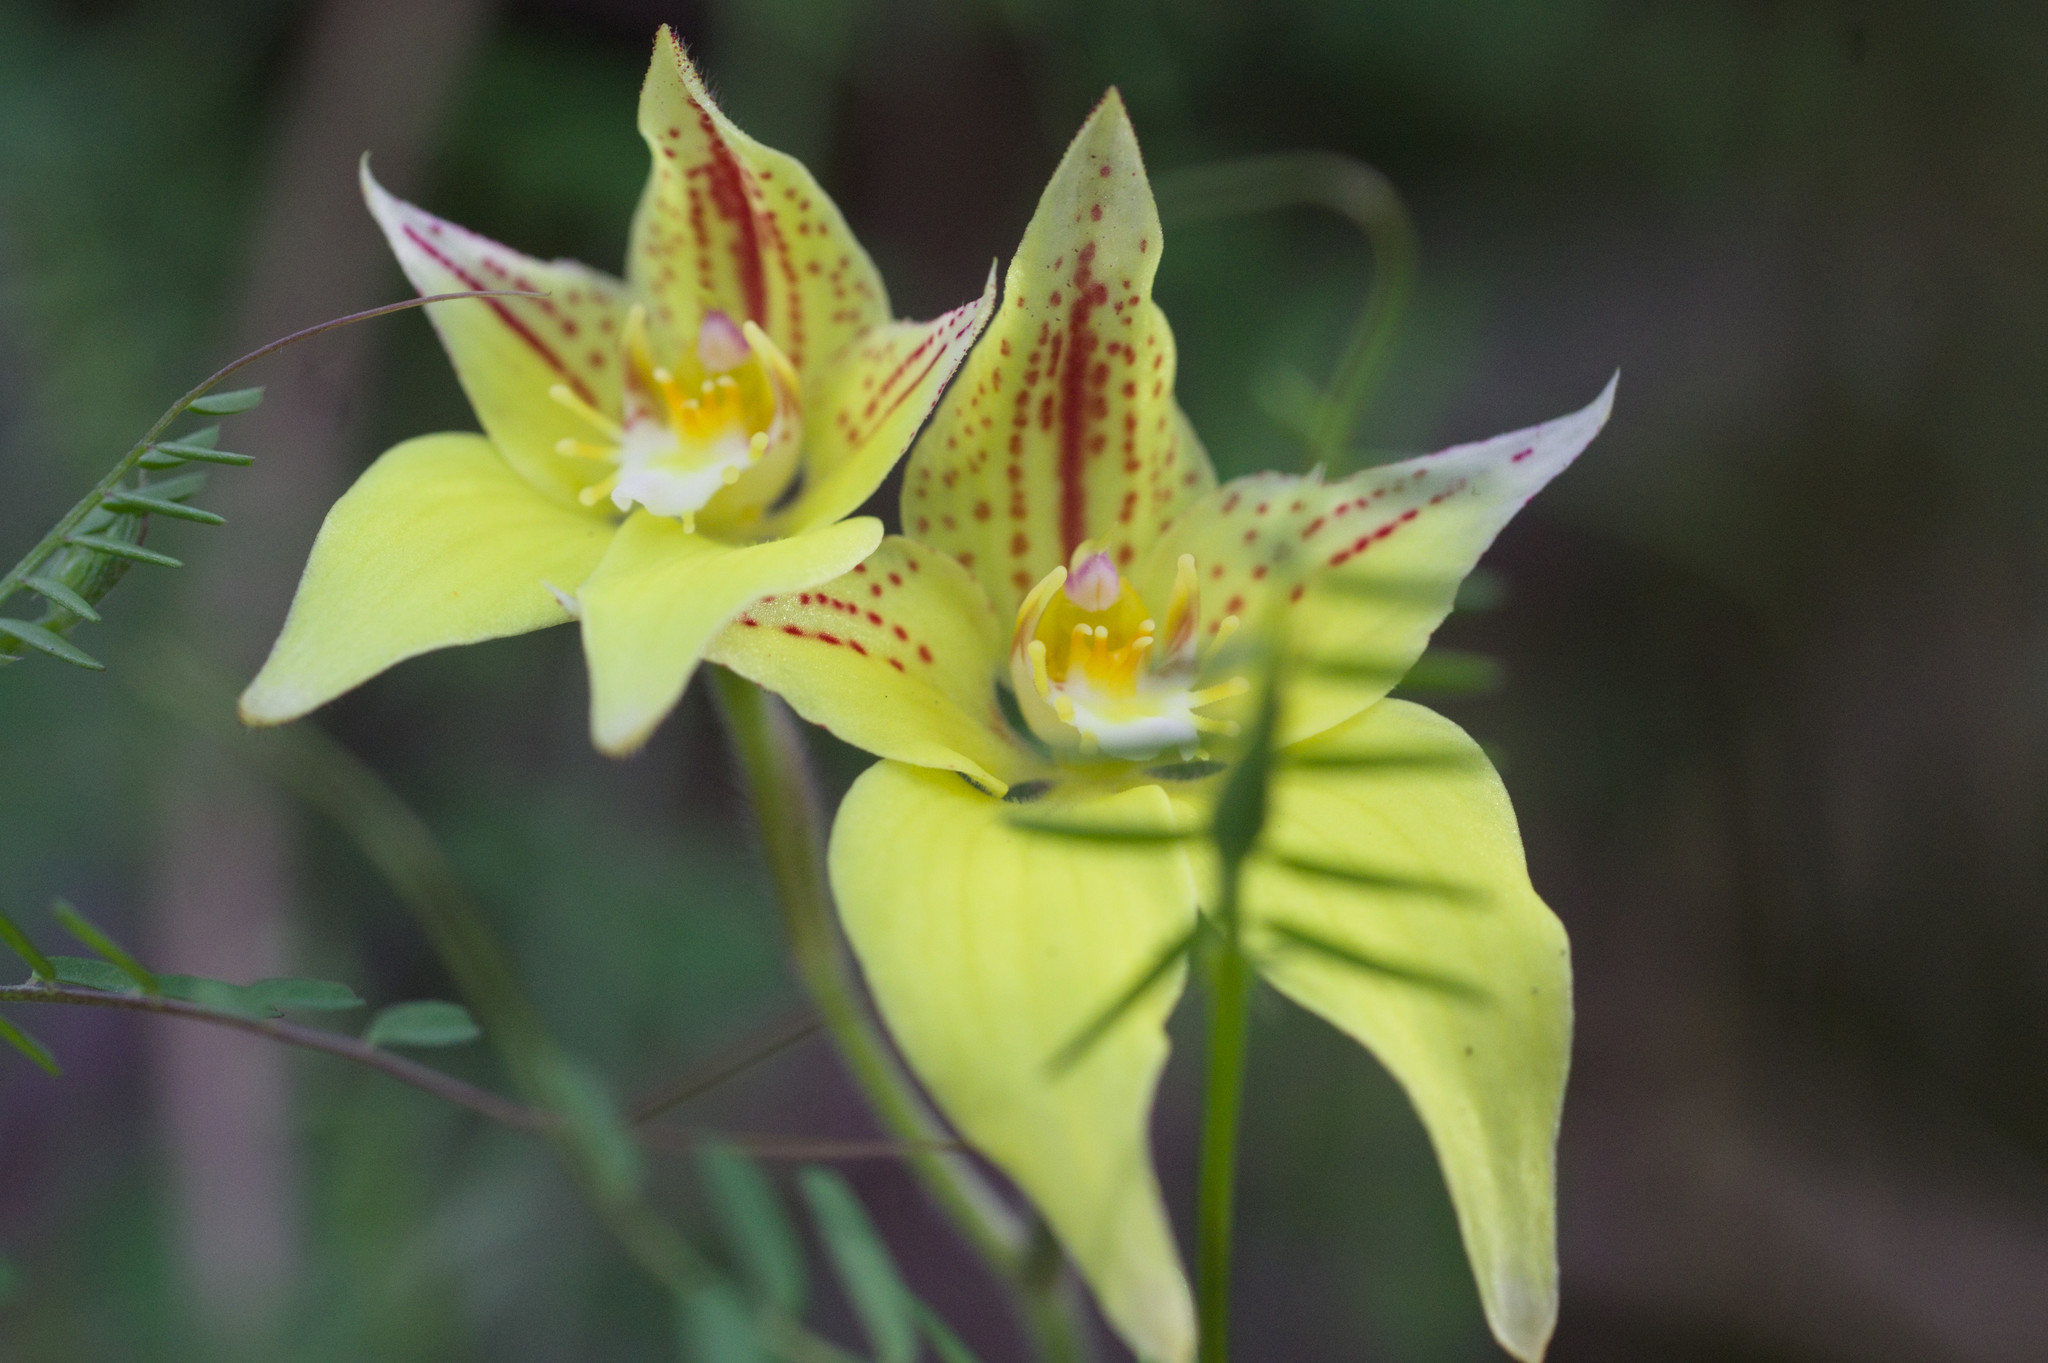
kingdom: Plantae
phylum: Tracheophyta
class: Liliopsida
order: Asparagales
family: Orchidaceae
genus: Caladenia
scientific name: Caladenia flava
